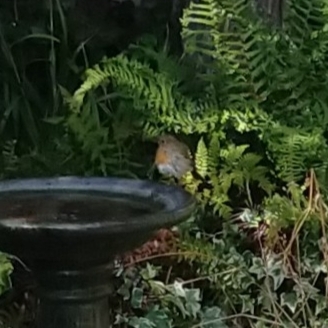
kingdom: Animalia
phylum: Chordata
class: Aves
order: Passeriformes
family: Muscicapidae
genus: Erithacus
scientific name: Erithacus rubecula
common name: European robin
